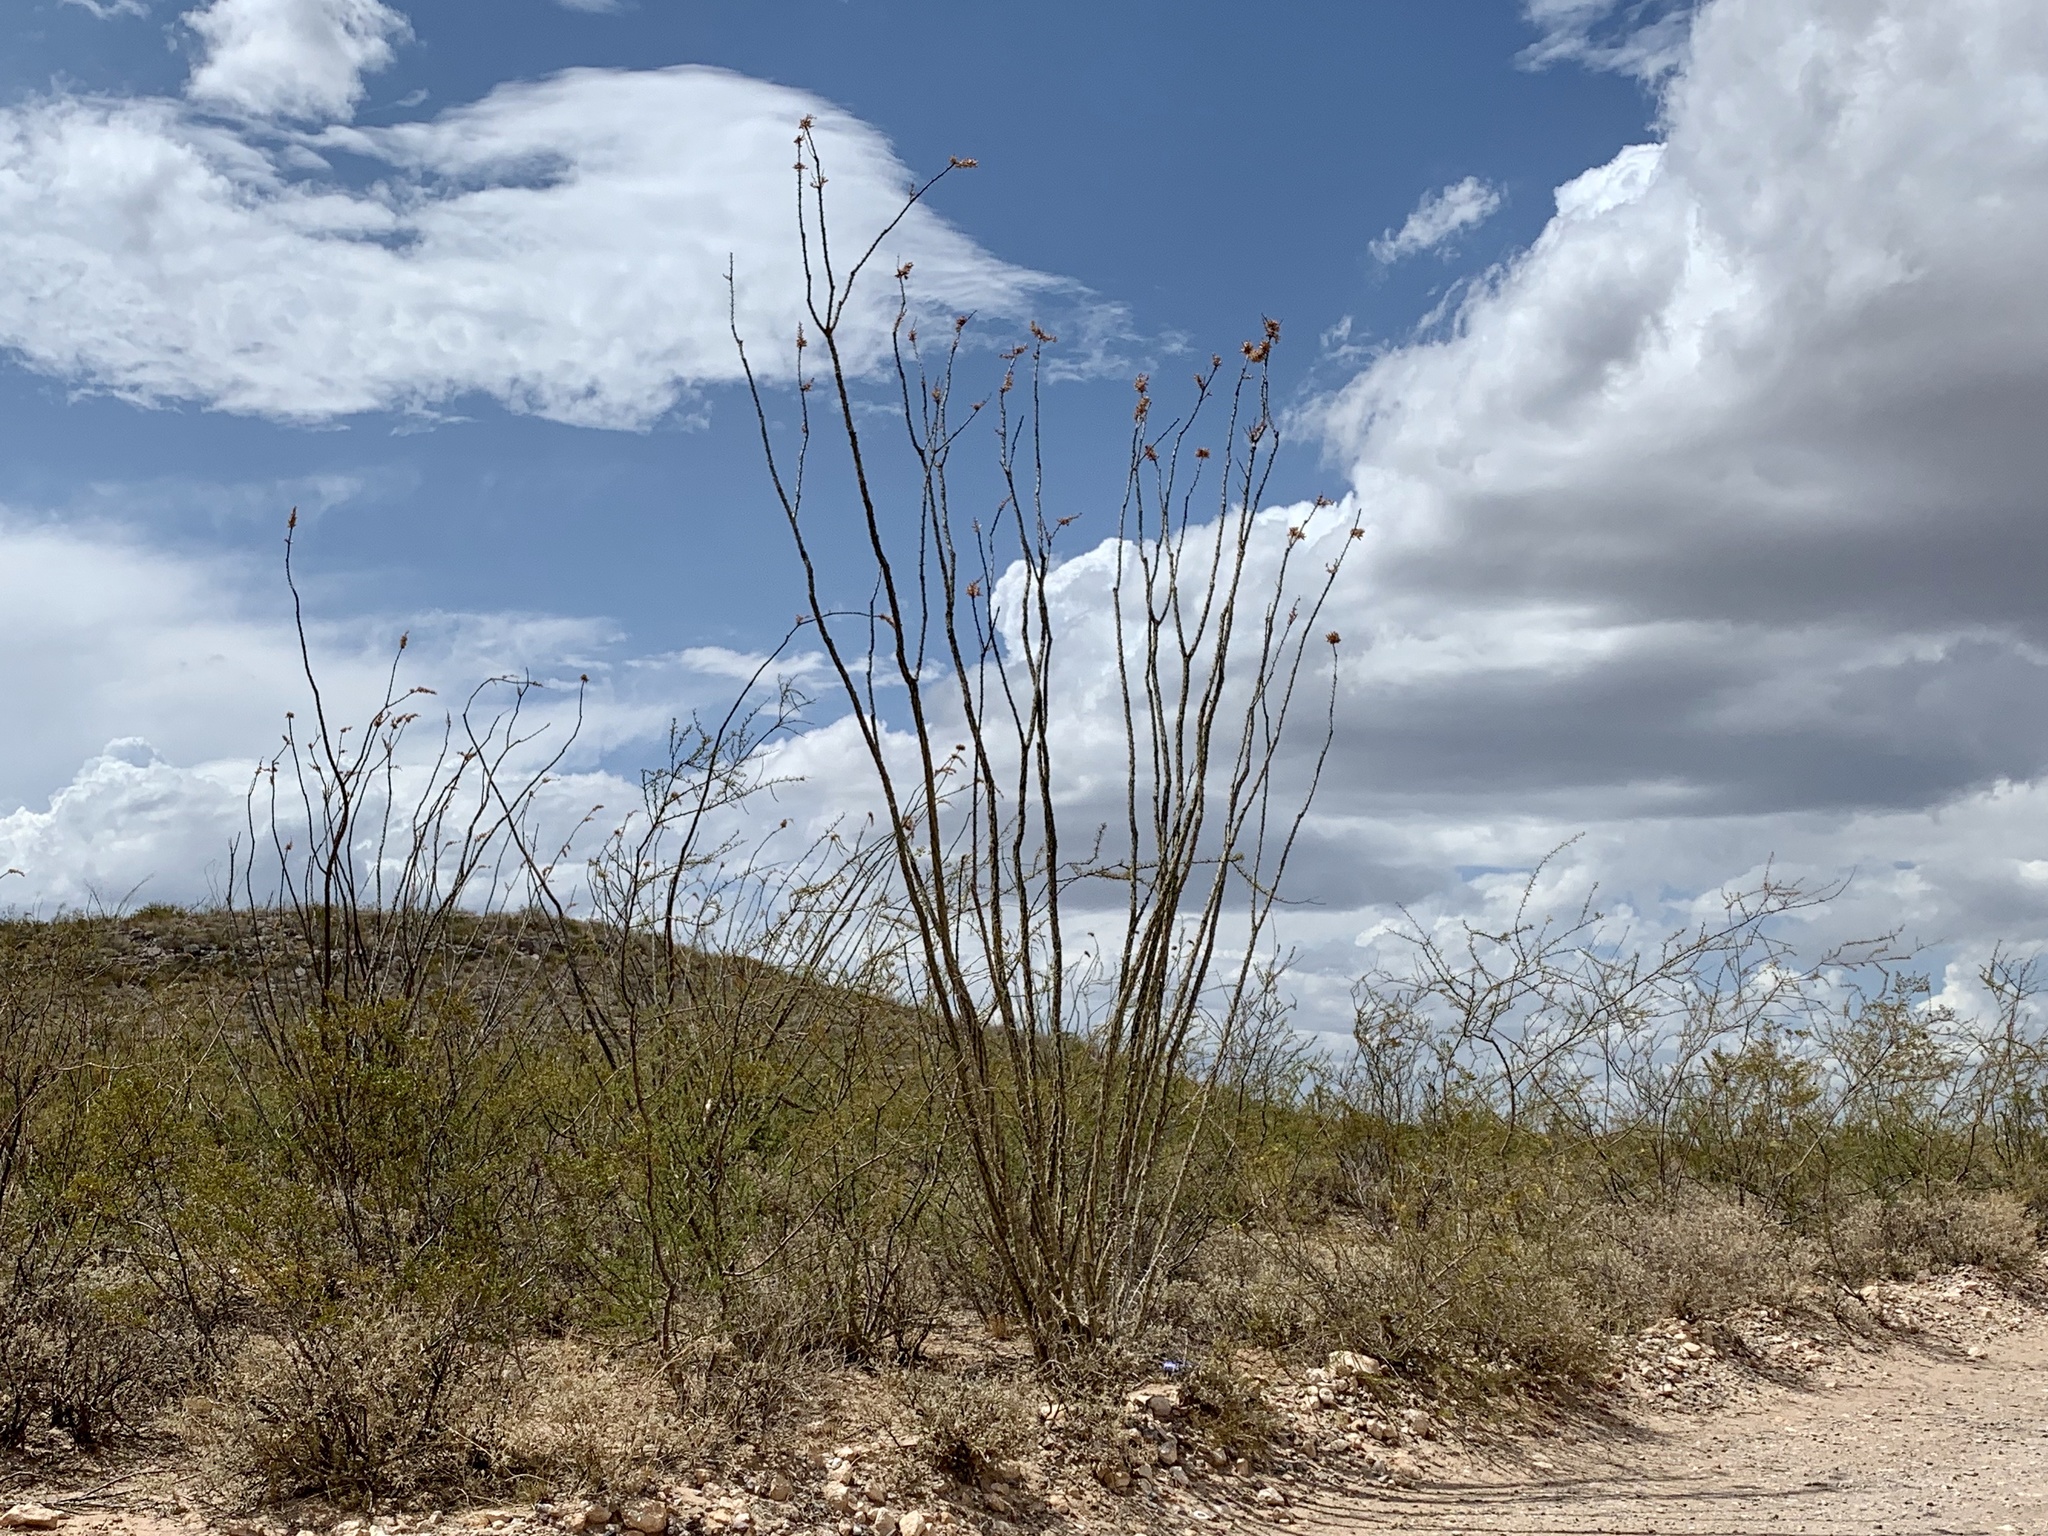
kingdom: Plantae
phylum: Tracheophyta
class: Magnoliopsida
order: Ericales
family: Fouquieriaceae
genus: Fouquieria
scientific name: Fouquieria splendens
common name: Vine-cactus
